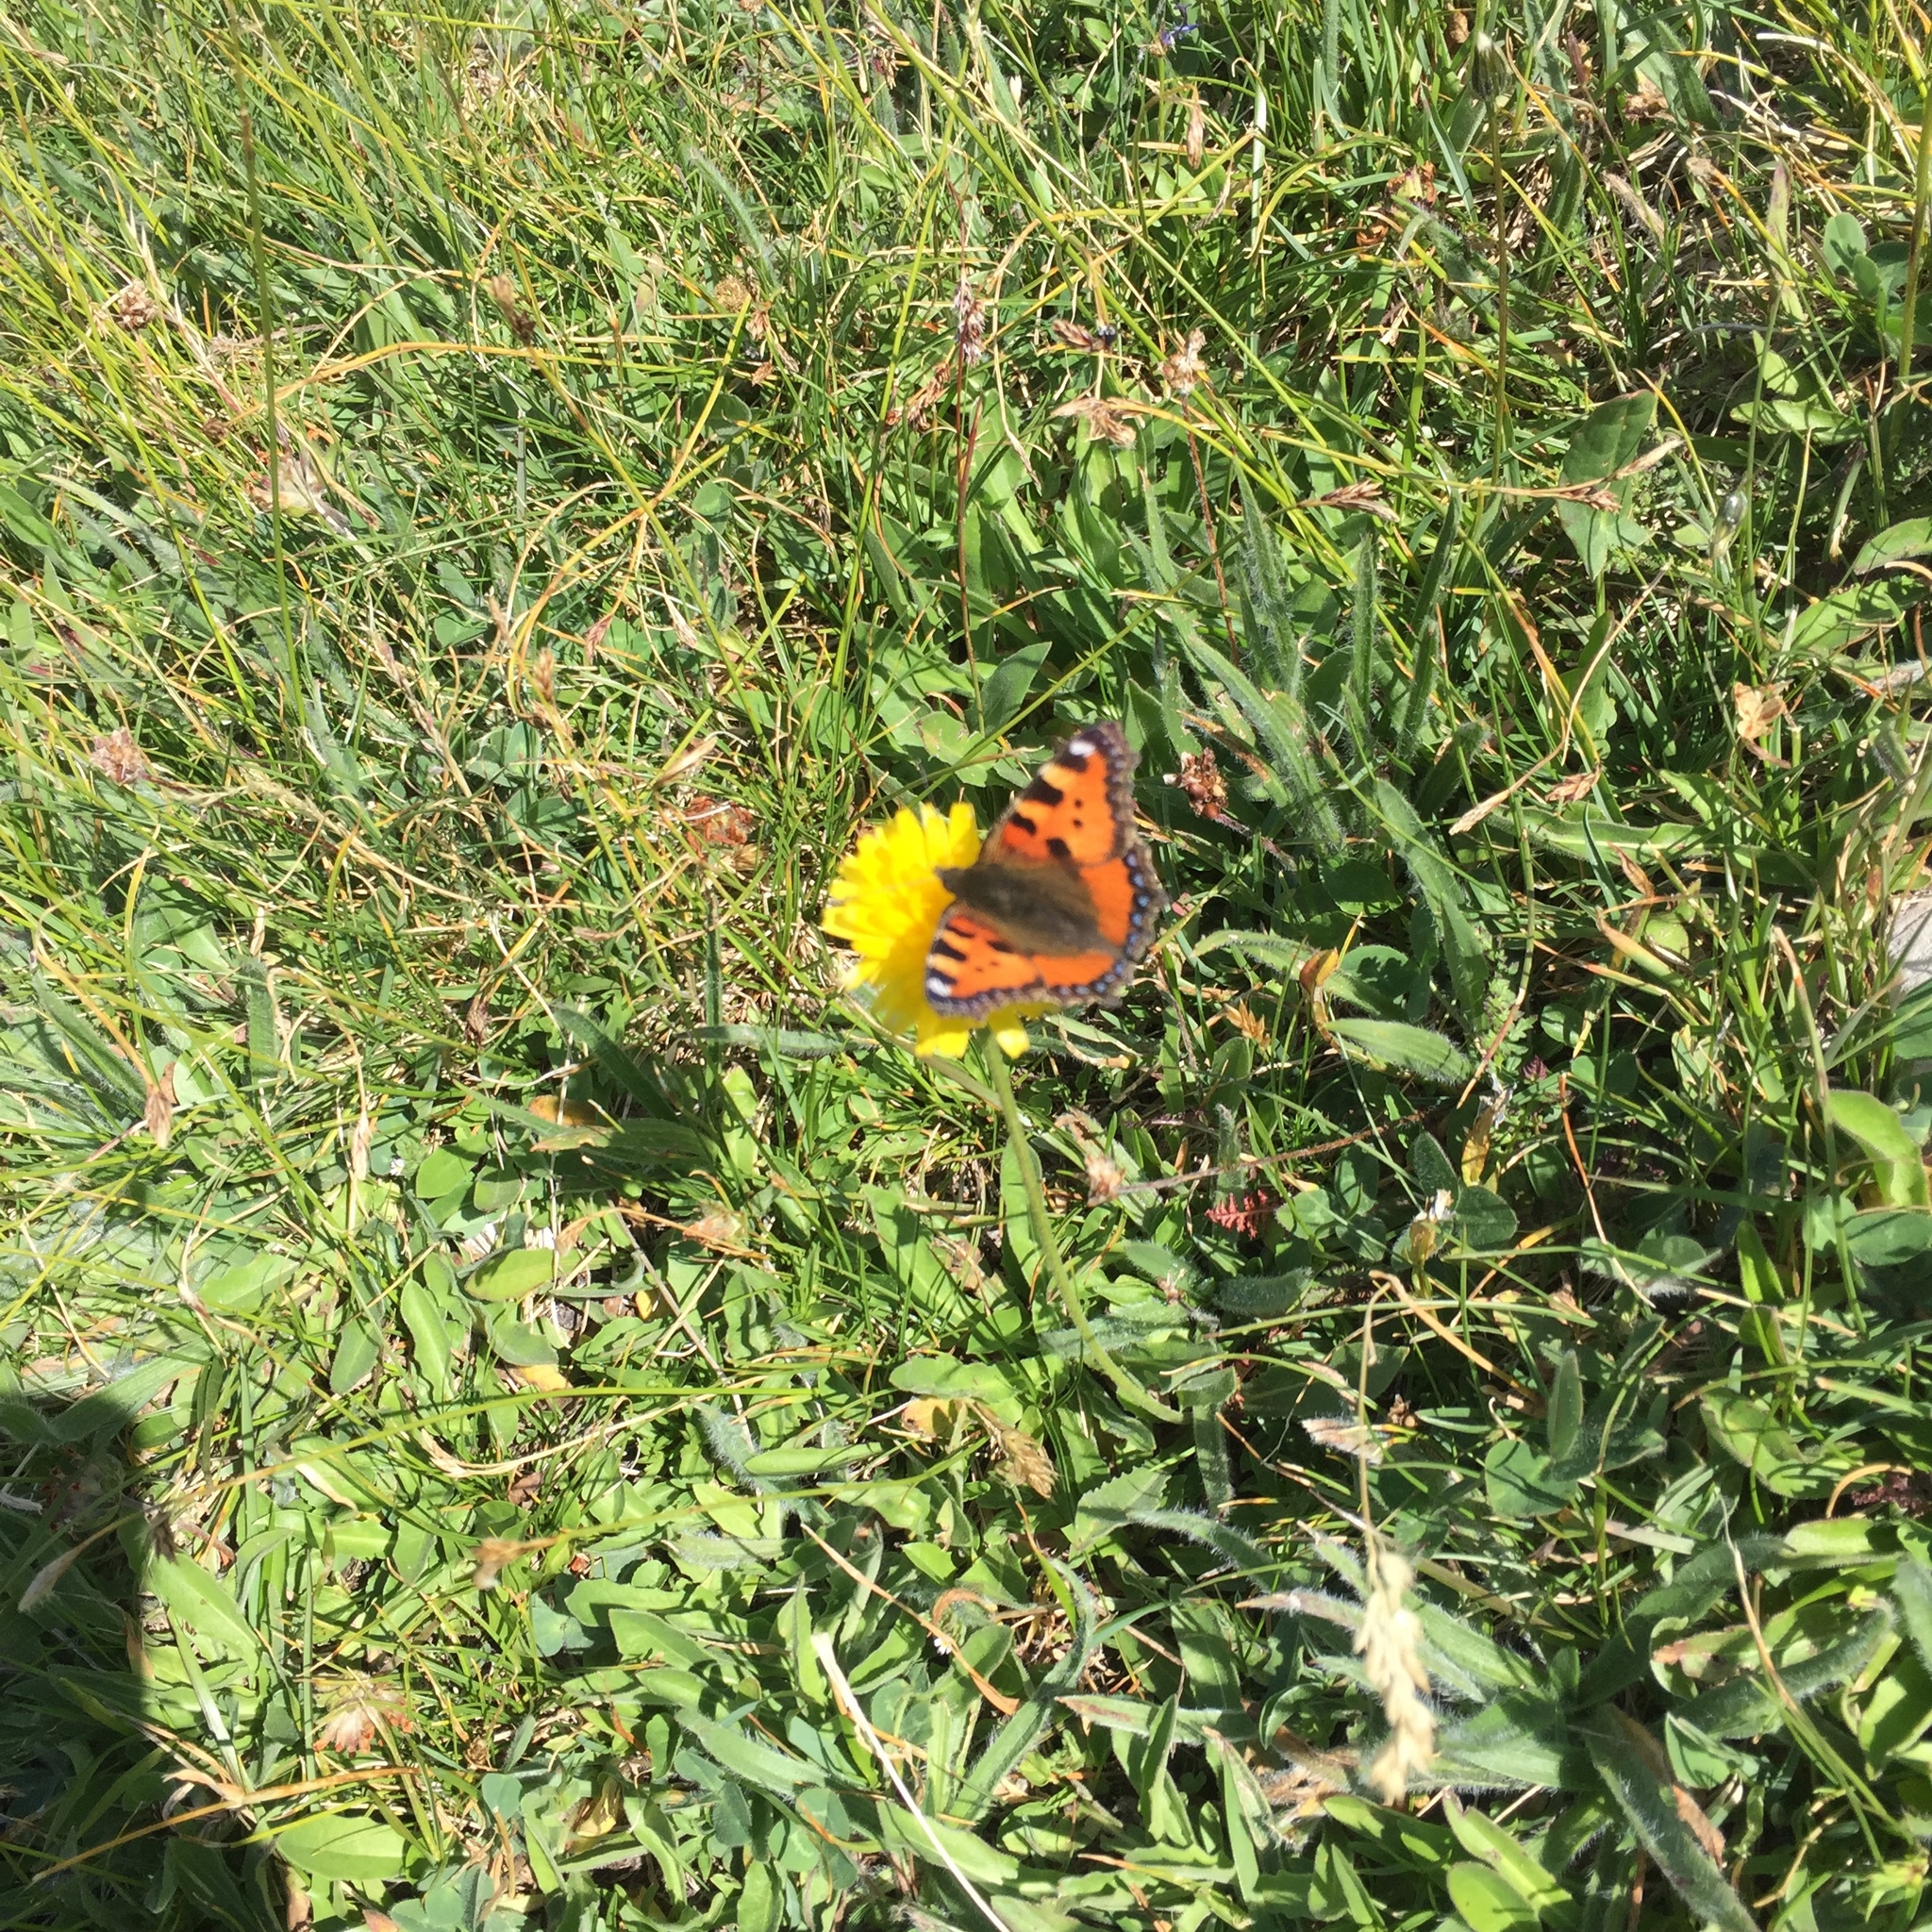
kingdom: Animalia
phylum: Arthropoda
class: Insecta
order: Lepidoptera
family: Nymphalidae
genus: Aglais
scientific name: Aglais urticae
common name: Small tortoiseshell
